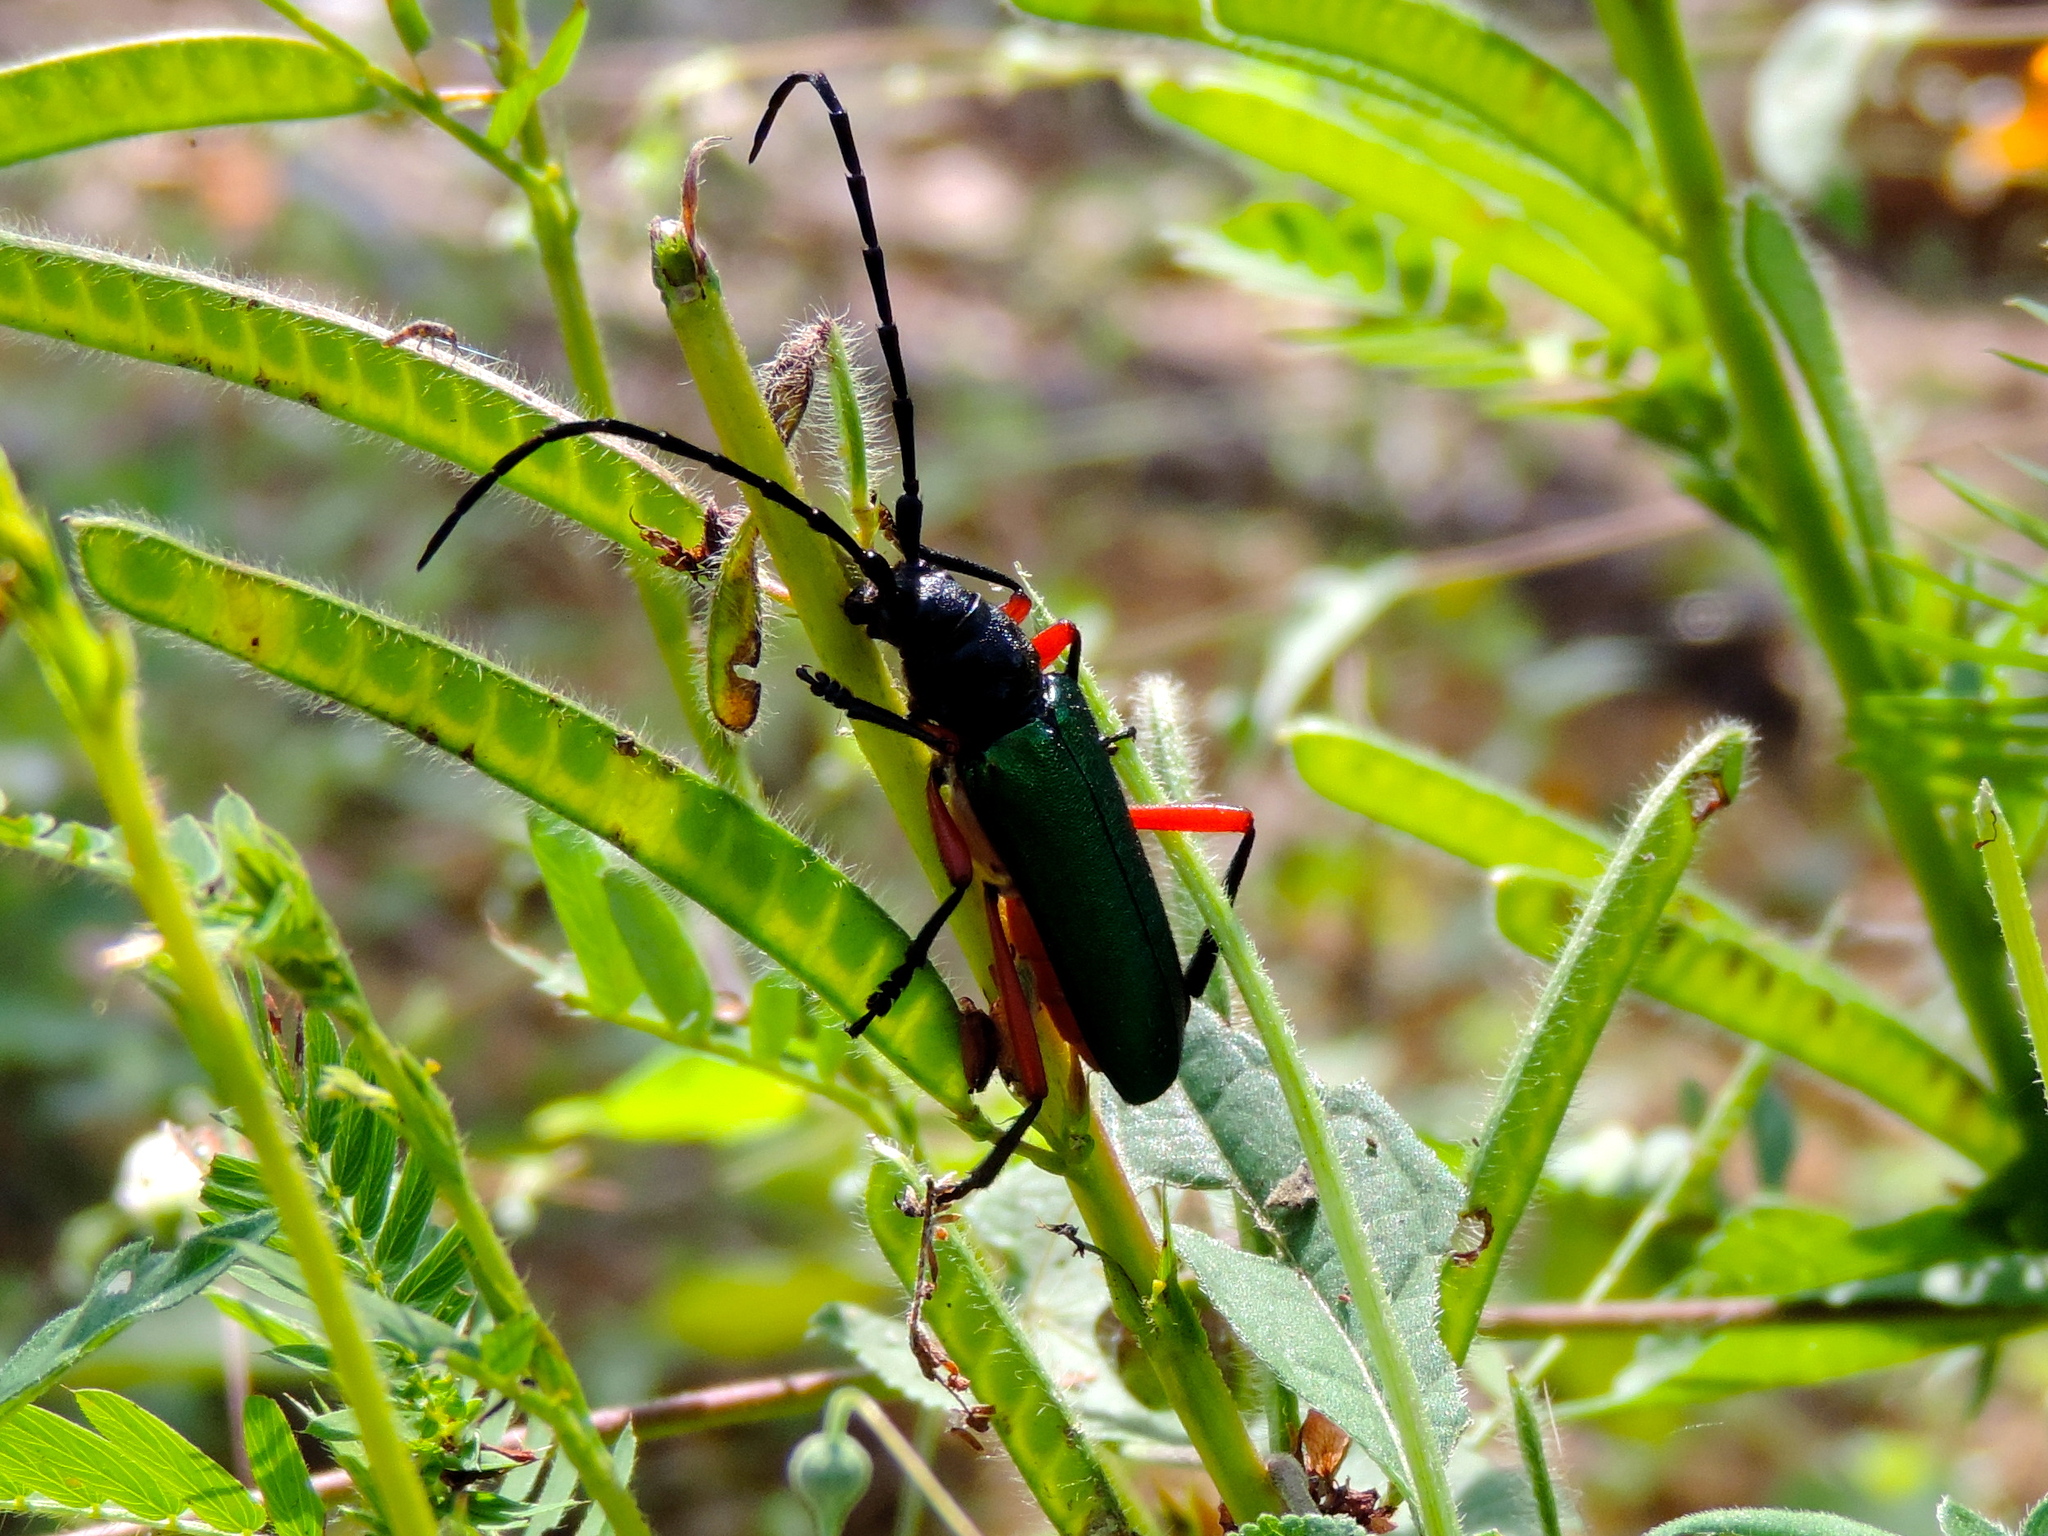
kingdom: Animalia
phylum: Arthropoda
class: Insecta
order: Coleoptera
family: Cerambycidae
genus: Deltaspis
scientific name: Deltaspis rubriventris
